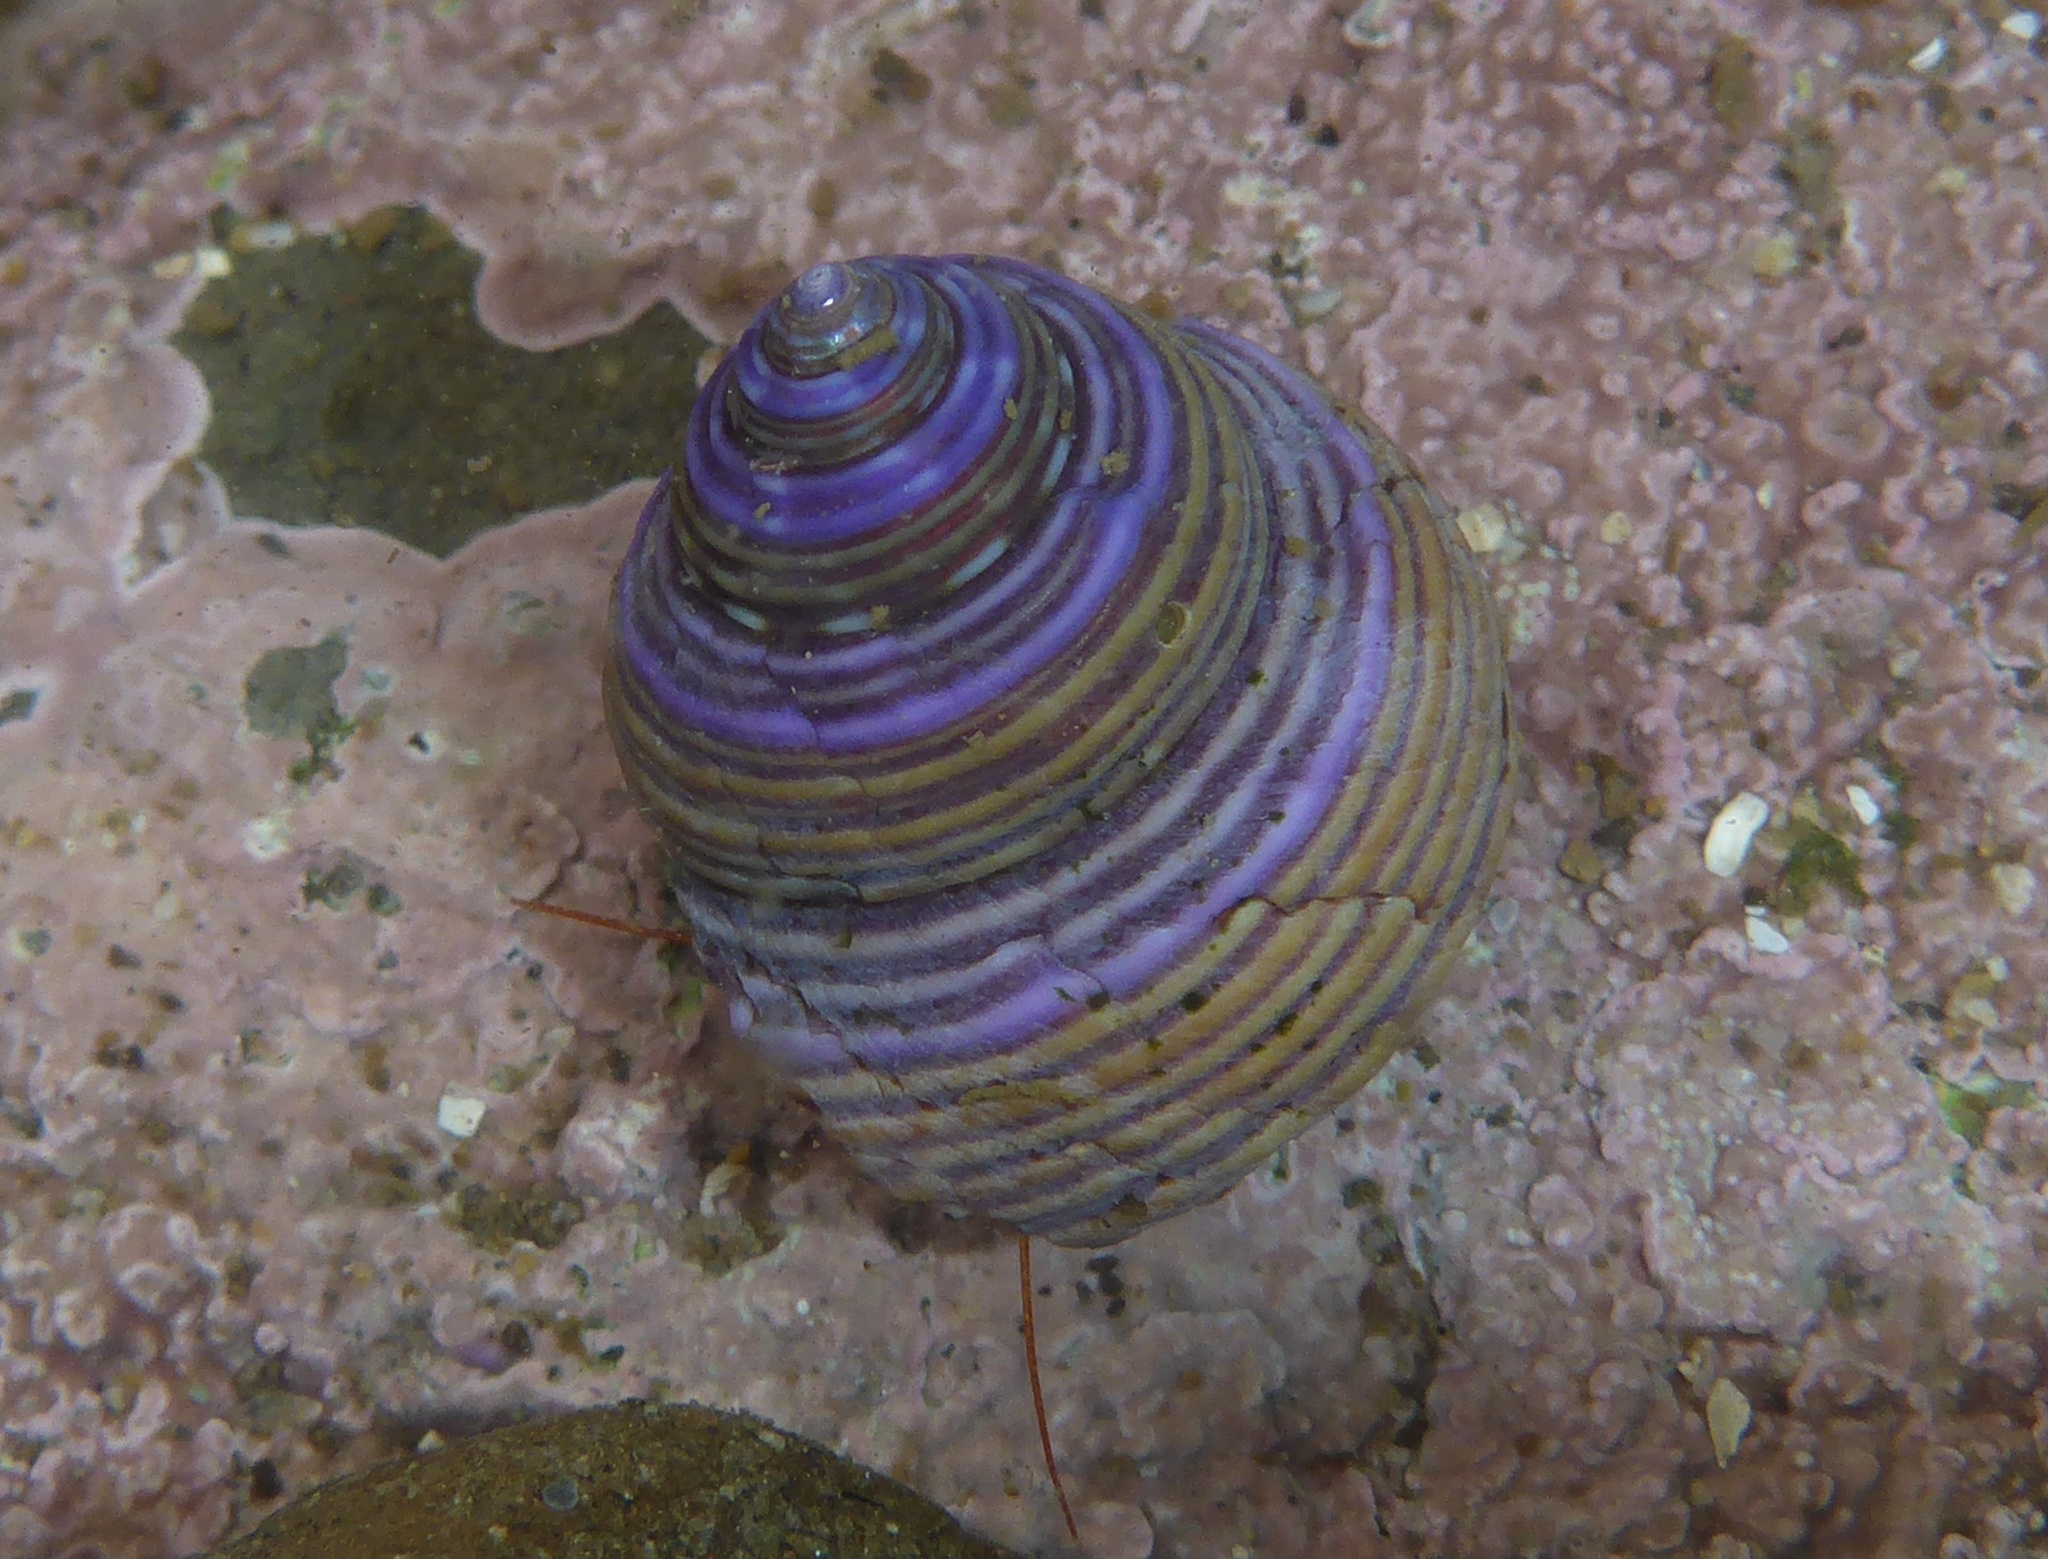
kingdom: Animalia
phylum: Mollusca
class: Gastropoda
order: Trochida
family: Calliostomatidae
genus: Calliostoma
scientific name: Calliostoma ligatum
